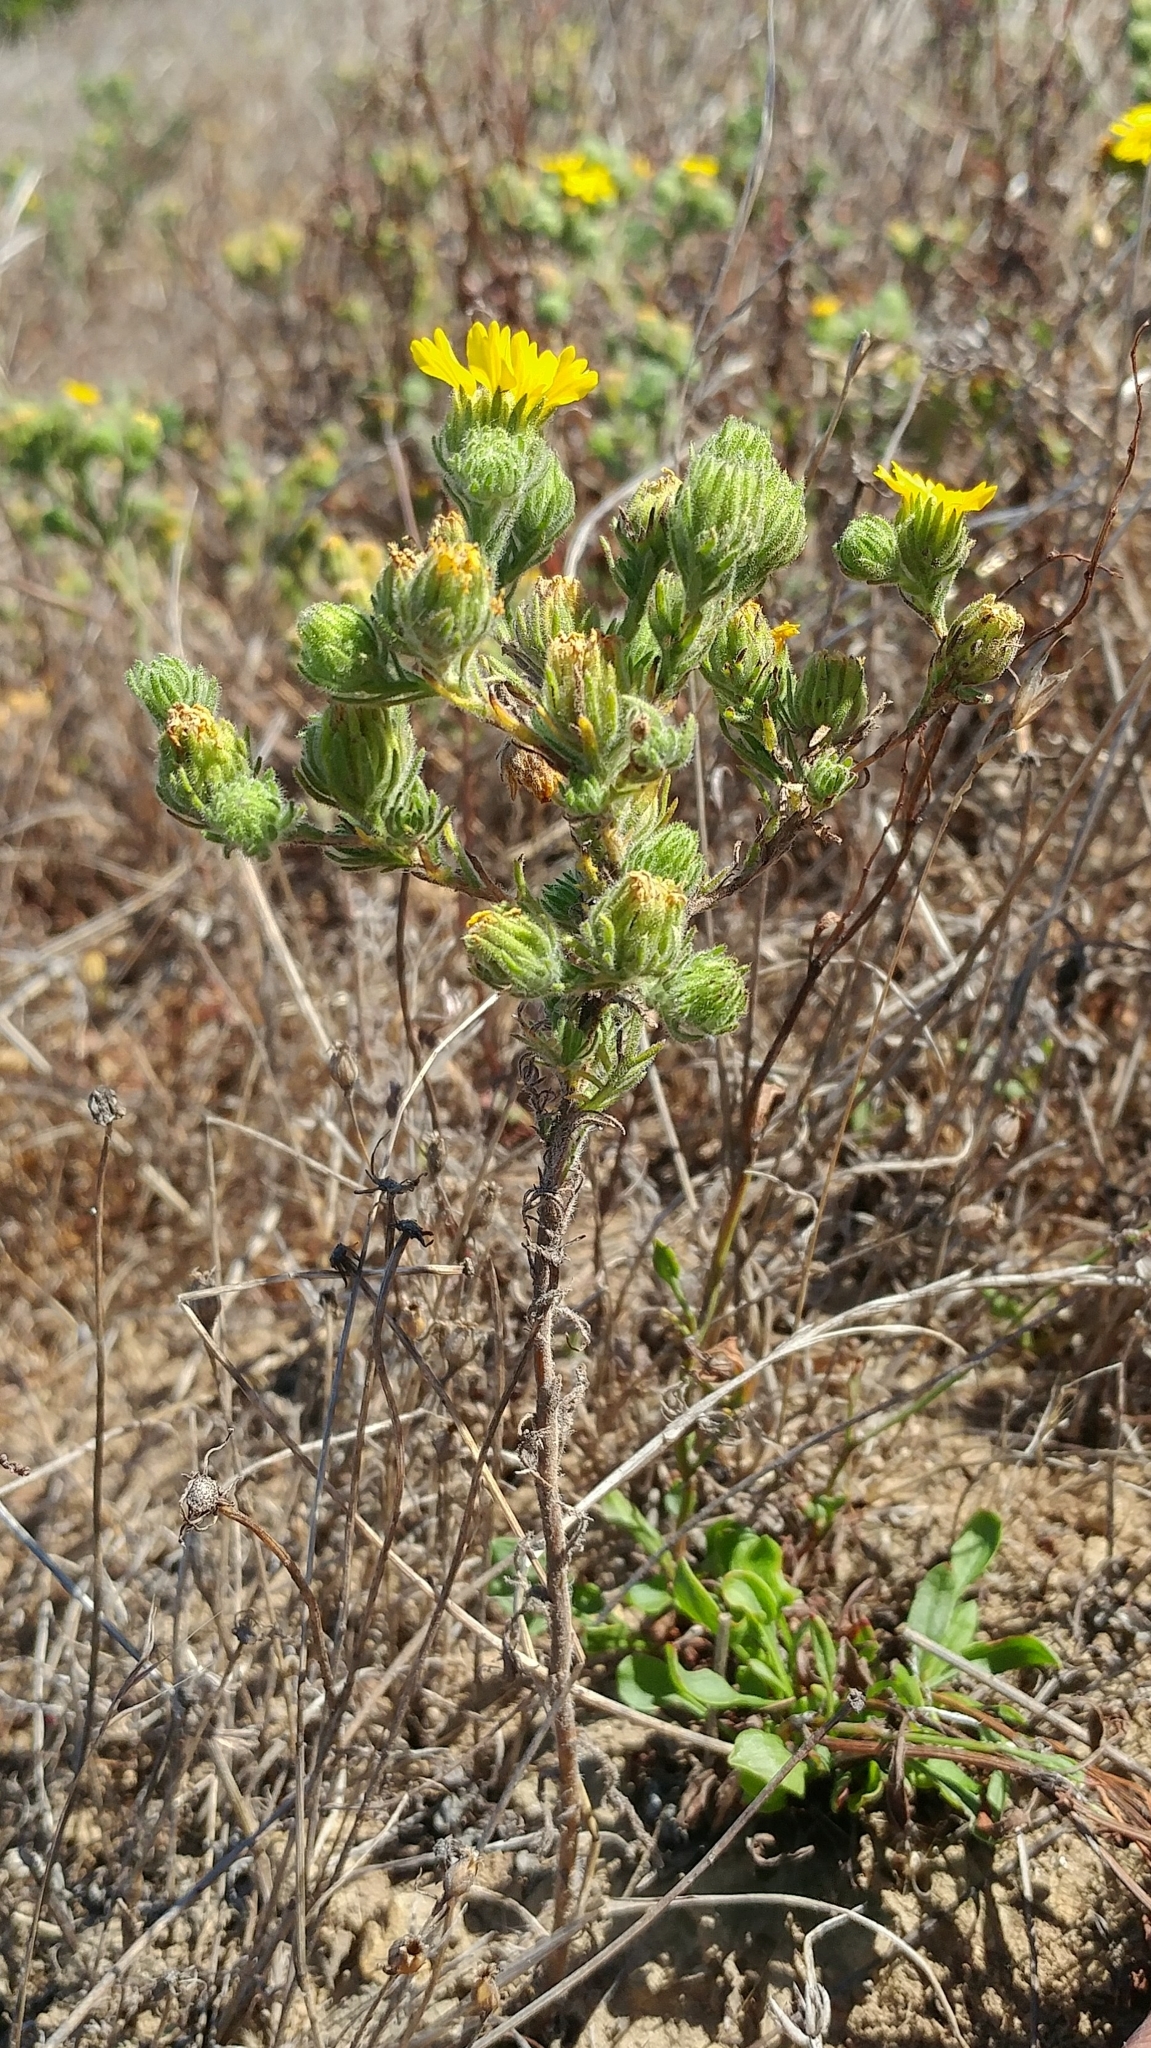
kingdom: Plantae
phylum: Tracheophyta
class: Magnoliopsida
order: Asterales
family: Asteraceae
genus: Deinandra
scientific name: Deinandra increscens
